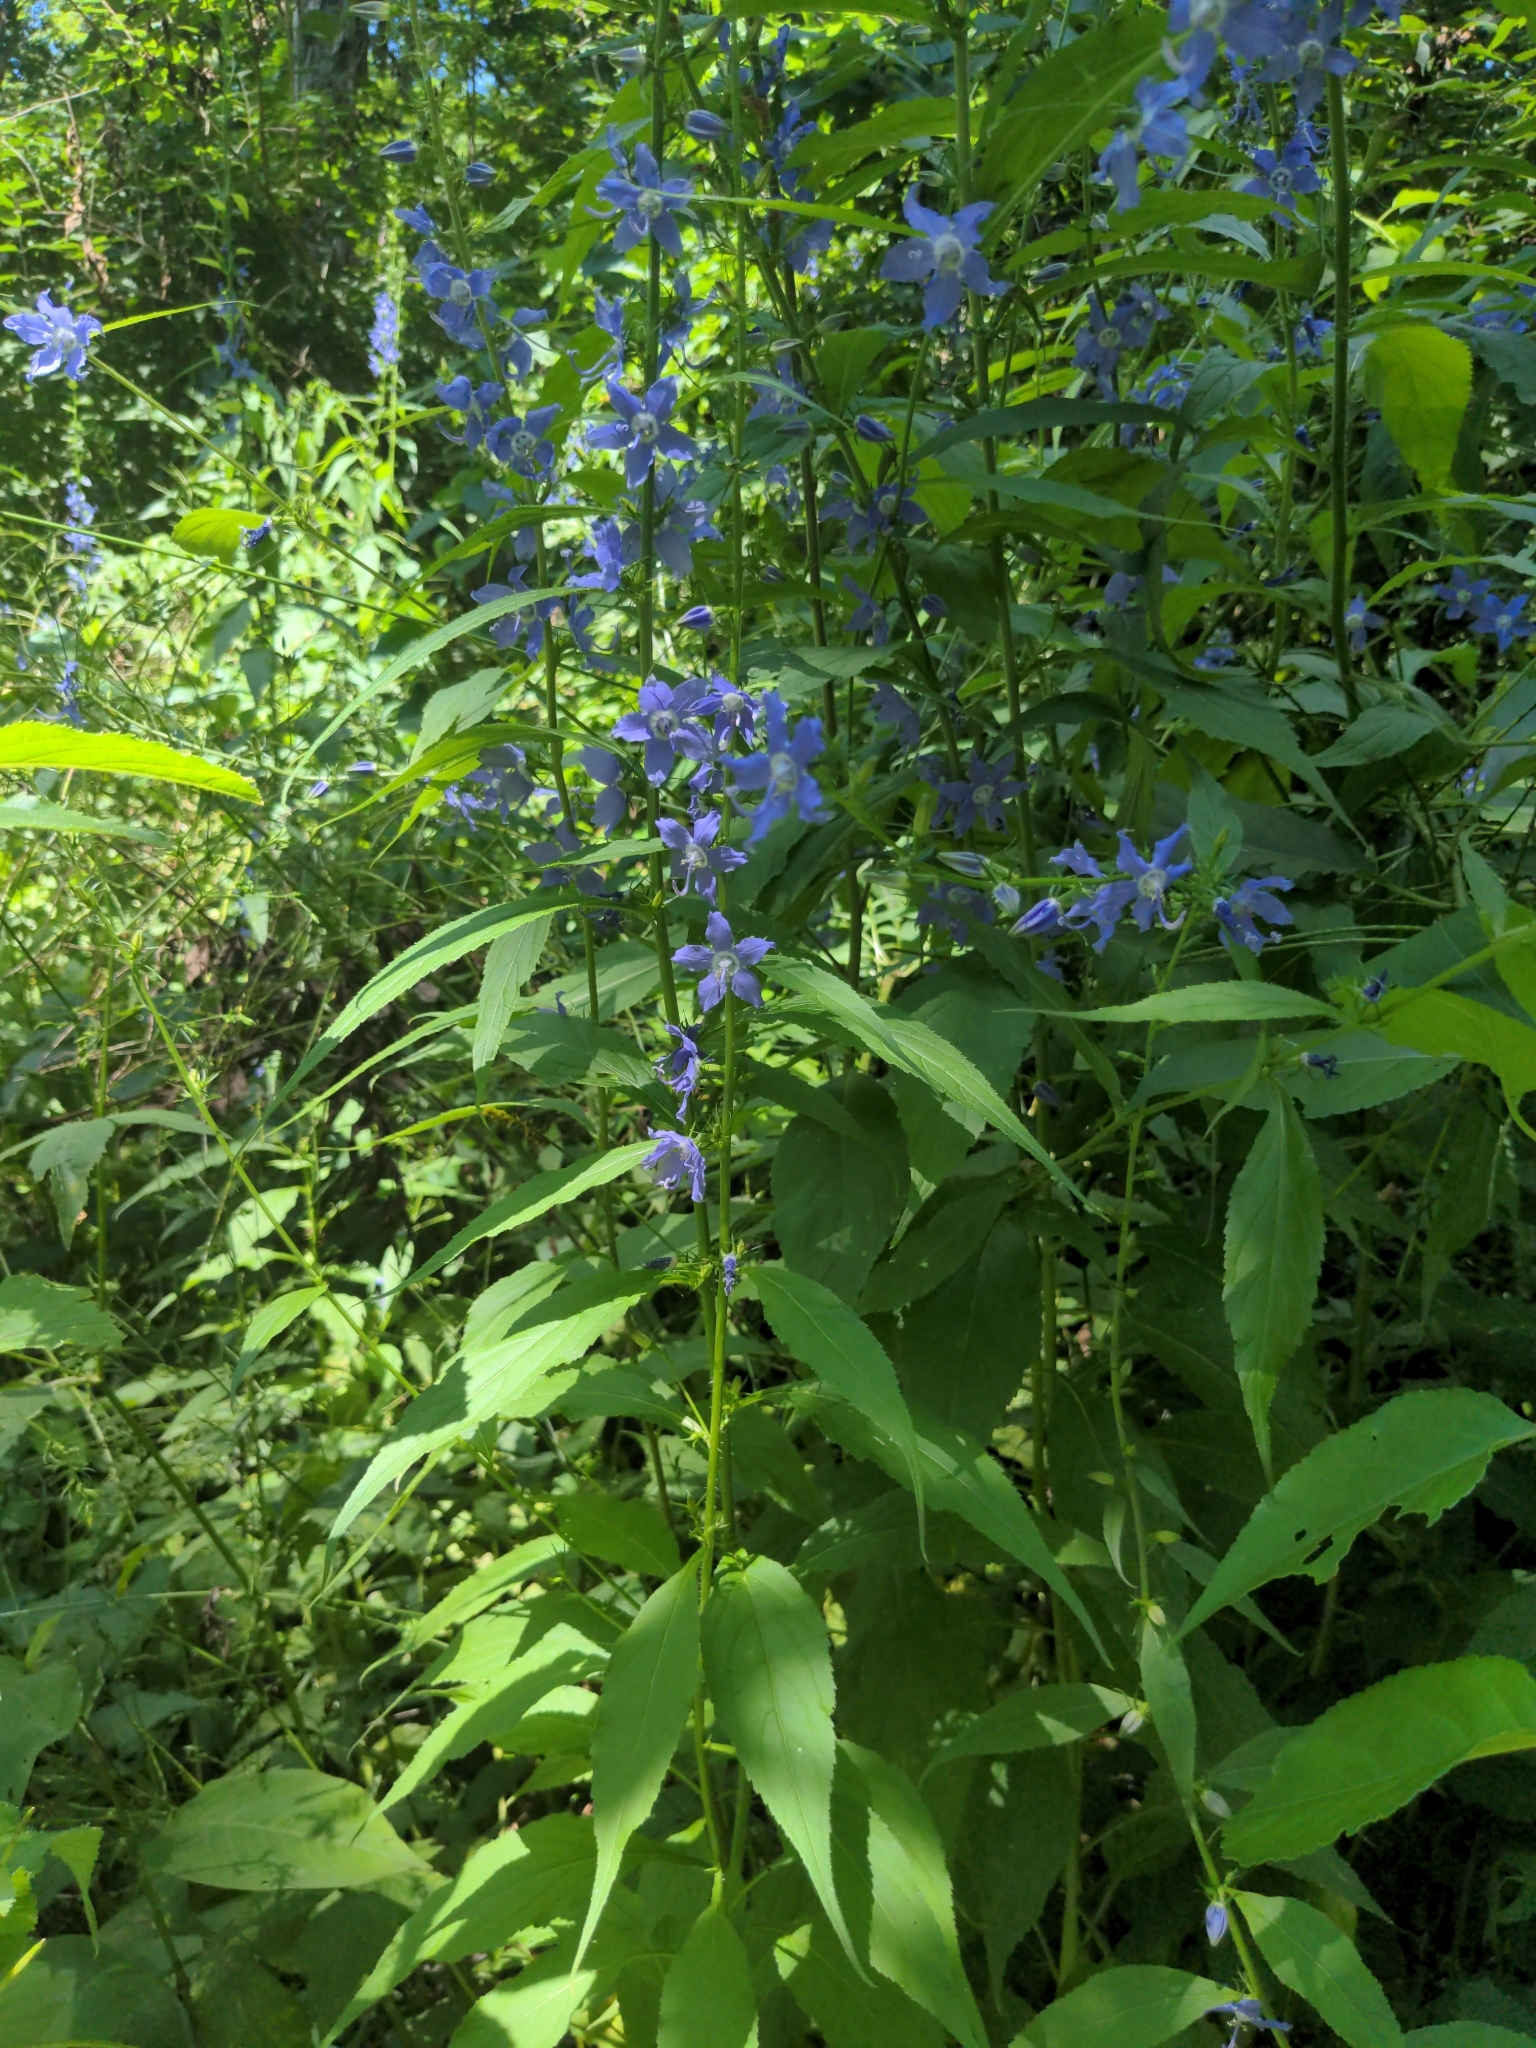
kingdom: Plantae
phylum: Tracheophyta
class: Magnoliopsida
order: Asterales
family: Campanulaceae
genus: Campanulastrum
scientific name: Campanulastrum americanum
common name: American bellflower
